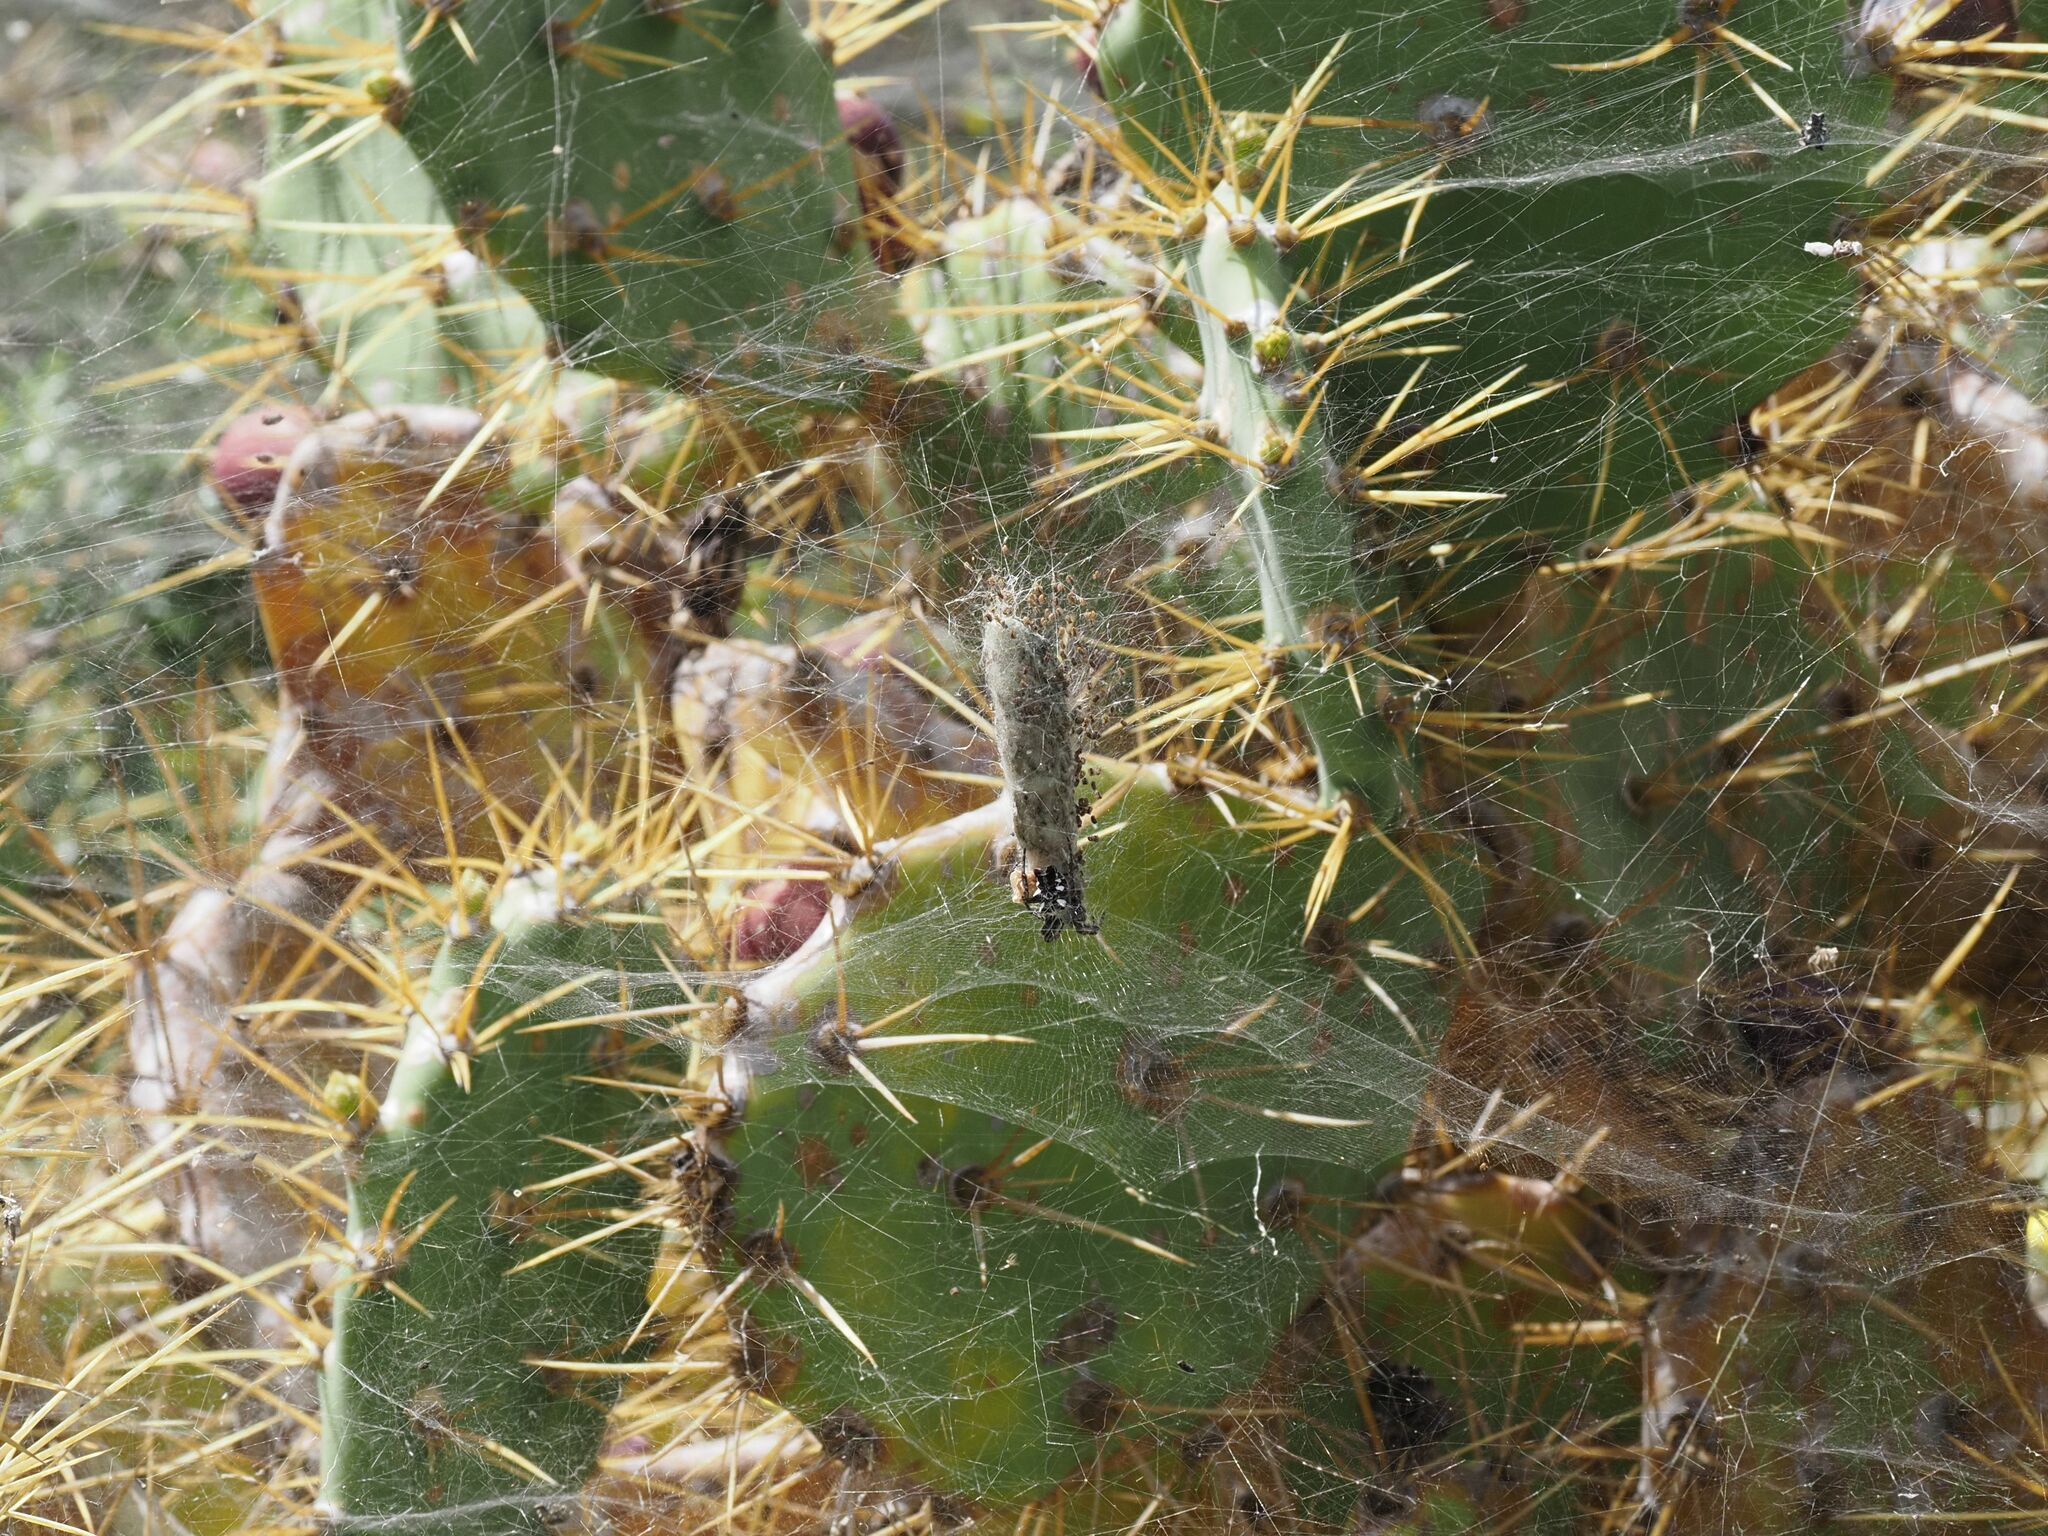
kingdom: Animalia
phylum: Arthropoda
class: Arachnida
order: Araneae
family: Araneidae
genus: Cyrtophora
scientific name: Cyrtophora citricola
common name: Orb weavers
